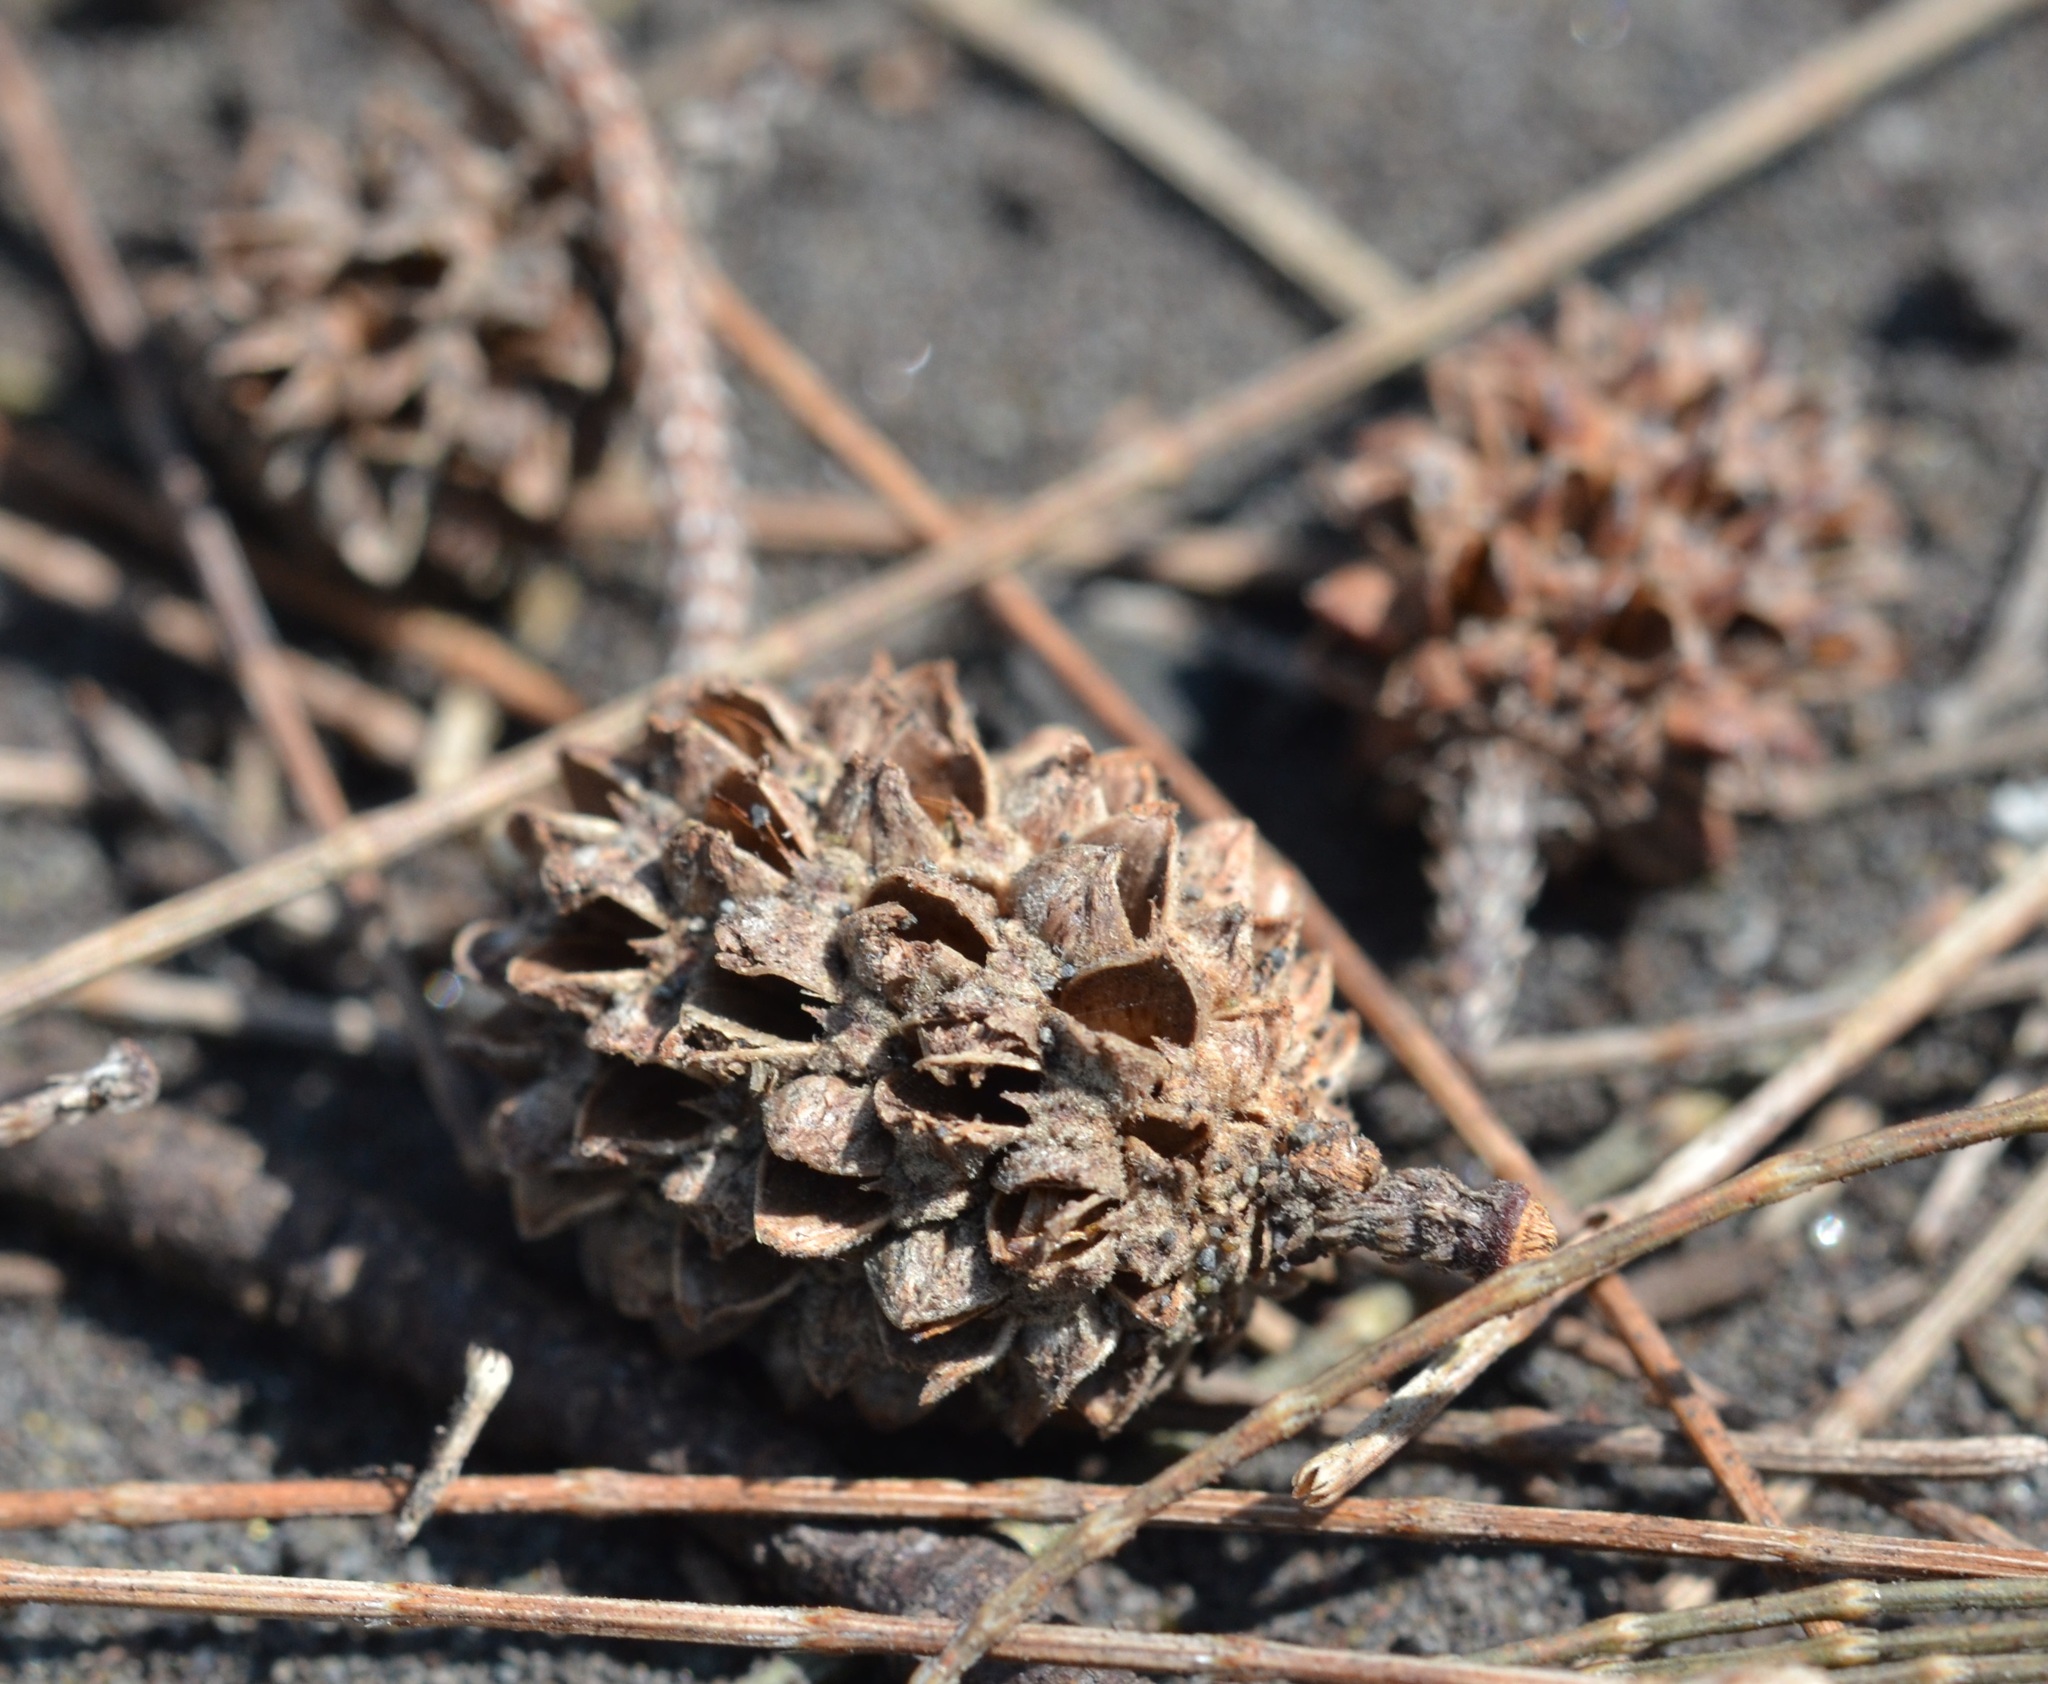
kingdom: Plantae
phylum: Tracheophyta
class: Magnoliopsida
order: Fagales
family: Casuarinaceae
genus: Casuarina
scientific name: Casuarina equisetifolia
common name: Beach sheoak
